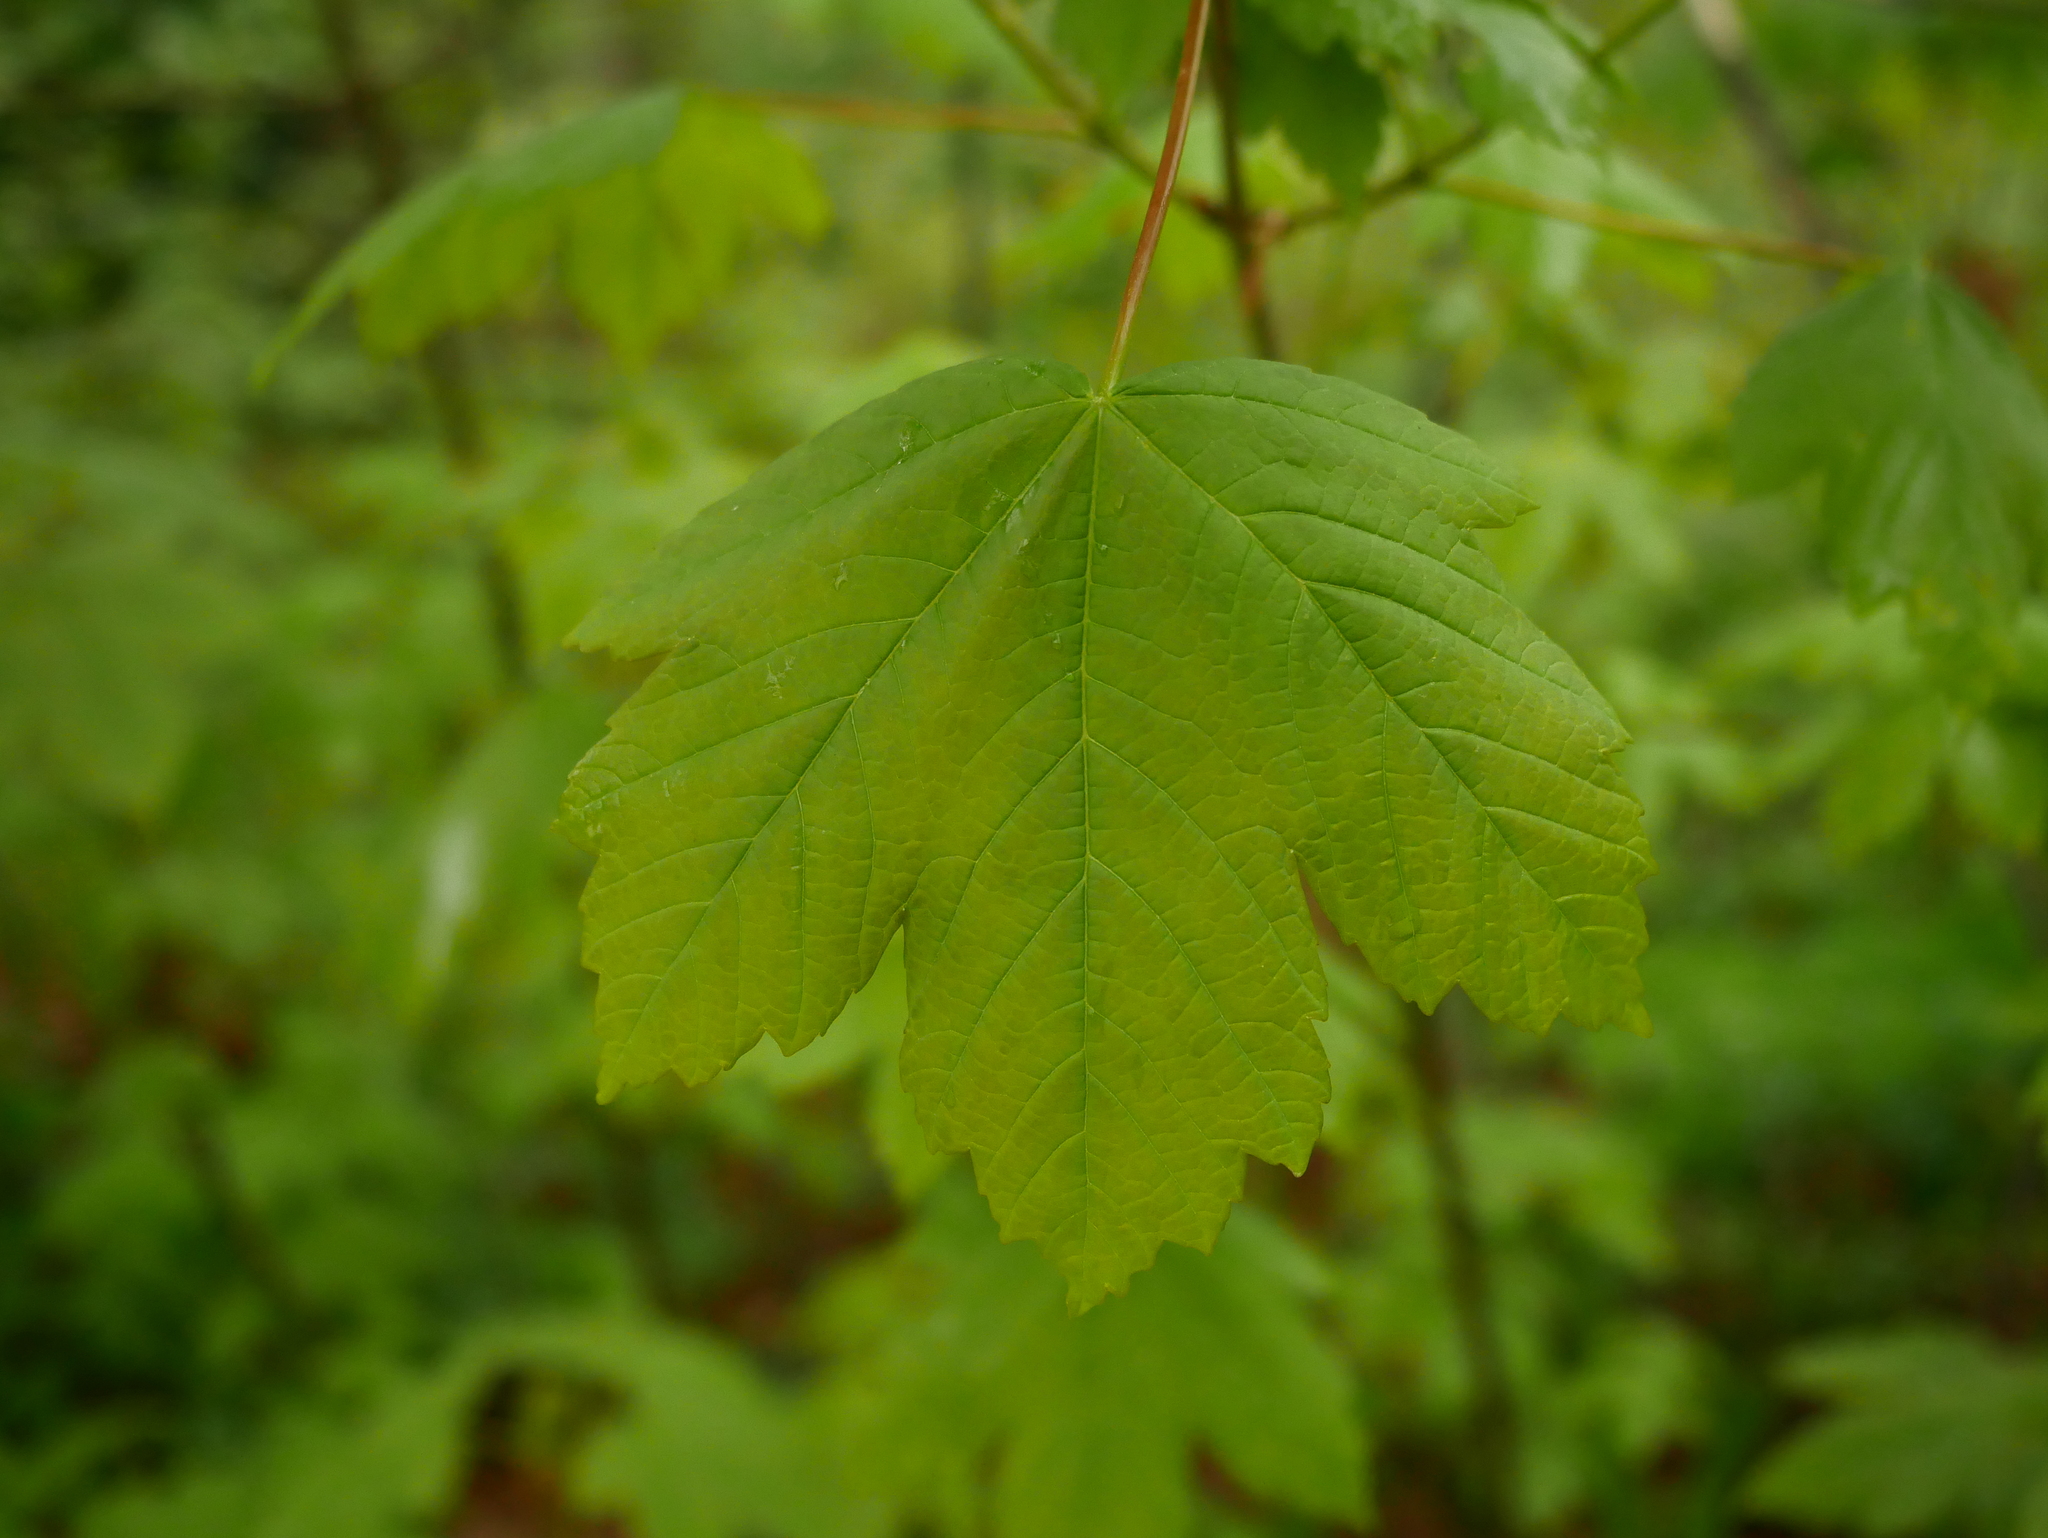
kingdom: Plantae
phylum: Tracheophyta
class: Magnoliopsida
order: Sapindales
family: Sapindaceae
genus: Acer
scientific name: Acer pseudoplatanus
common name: Sycamore
